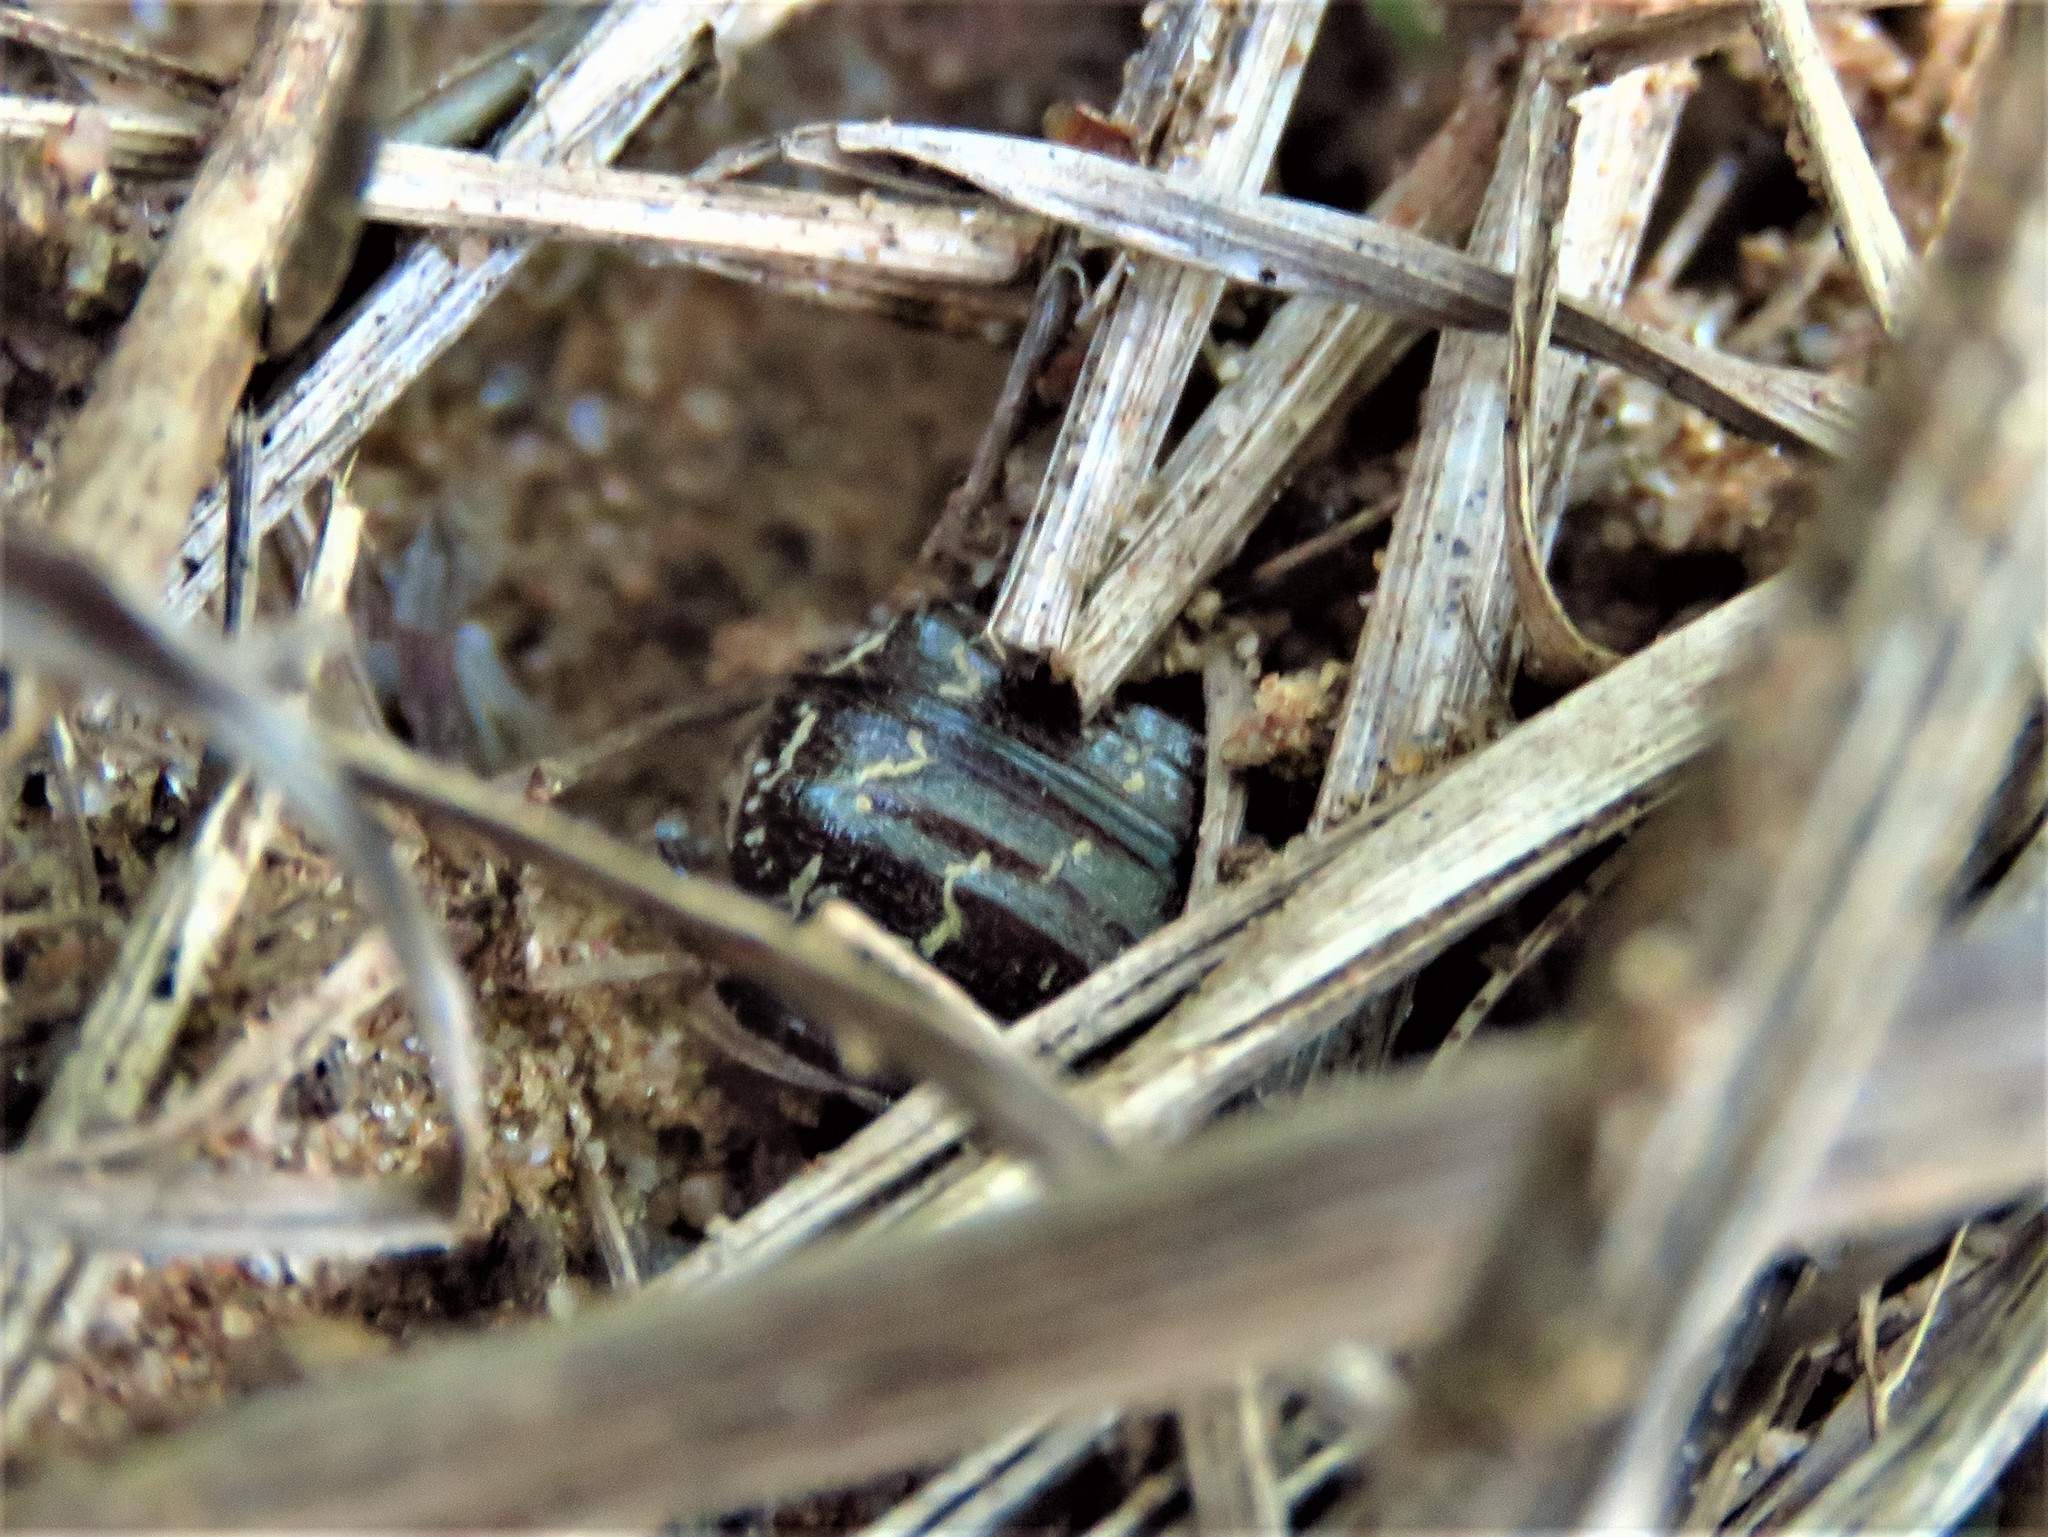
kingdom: Animalia
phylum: Arthropoda
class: Insecta
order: Coleoptera
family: Scarabaeidae
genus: Euphoria
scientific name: Euphoria sepulcralis
